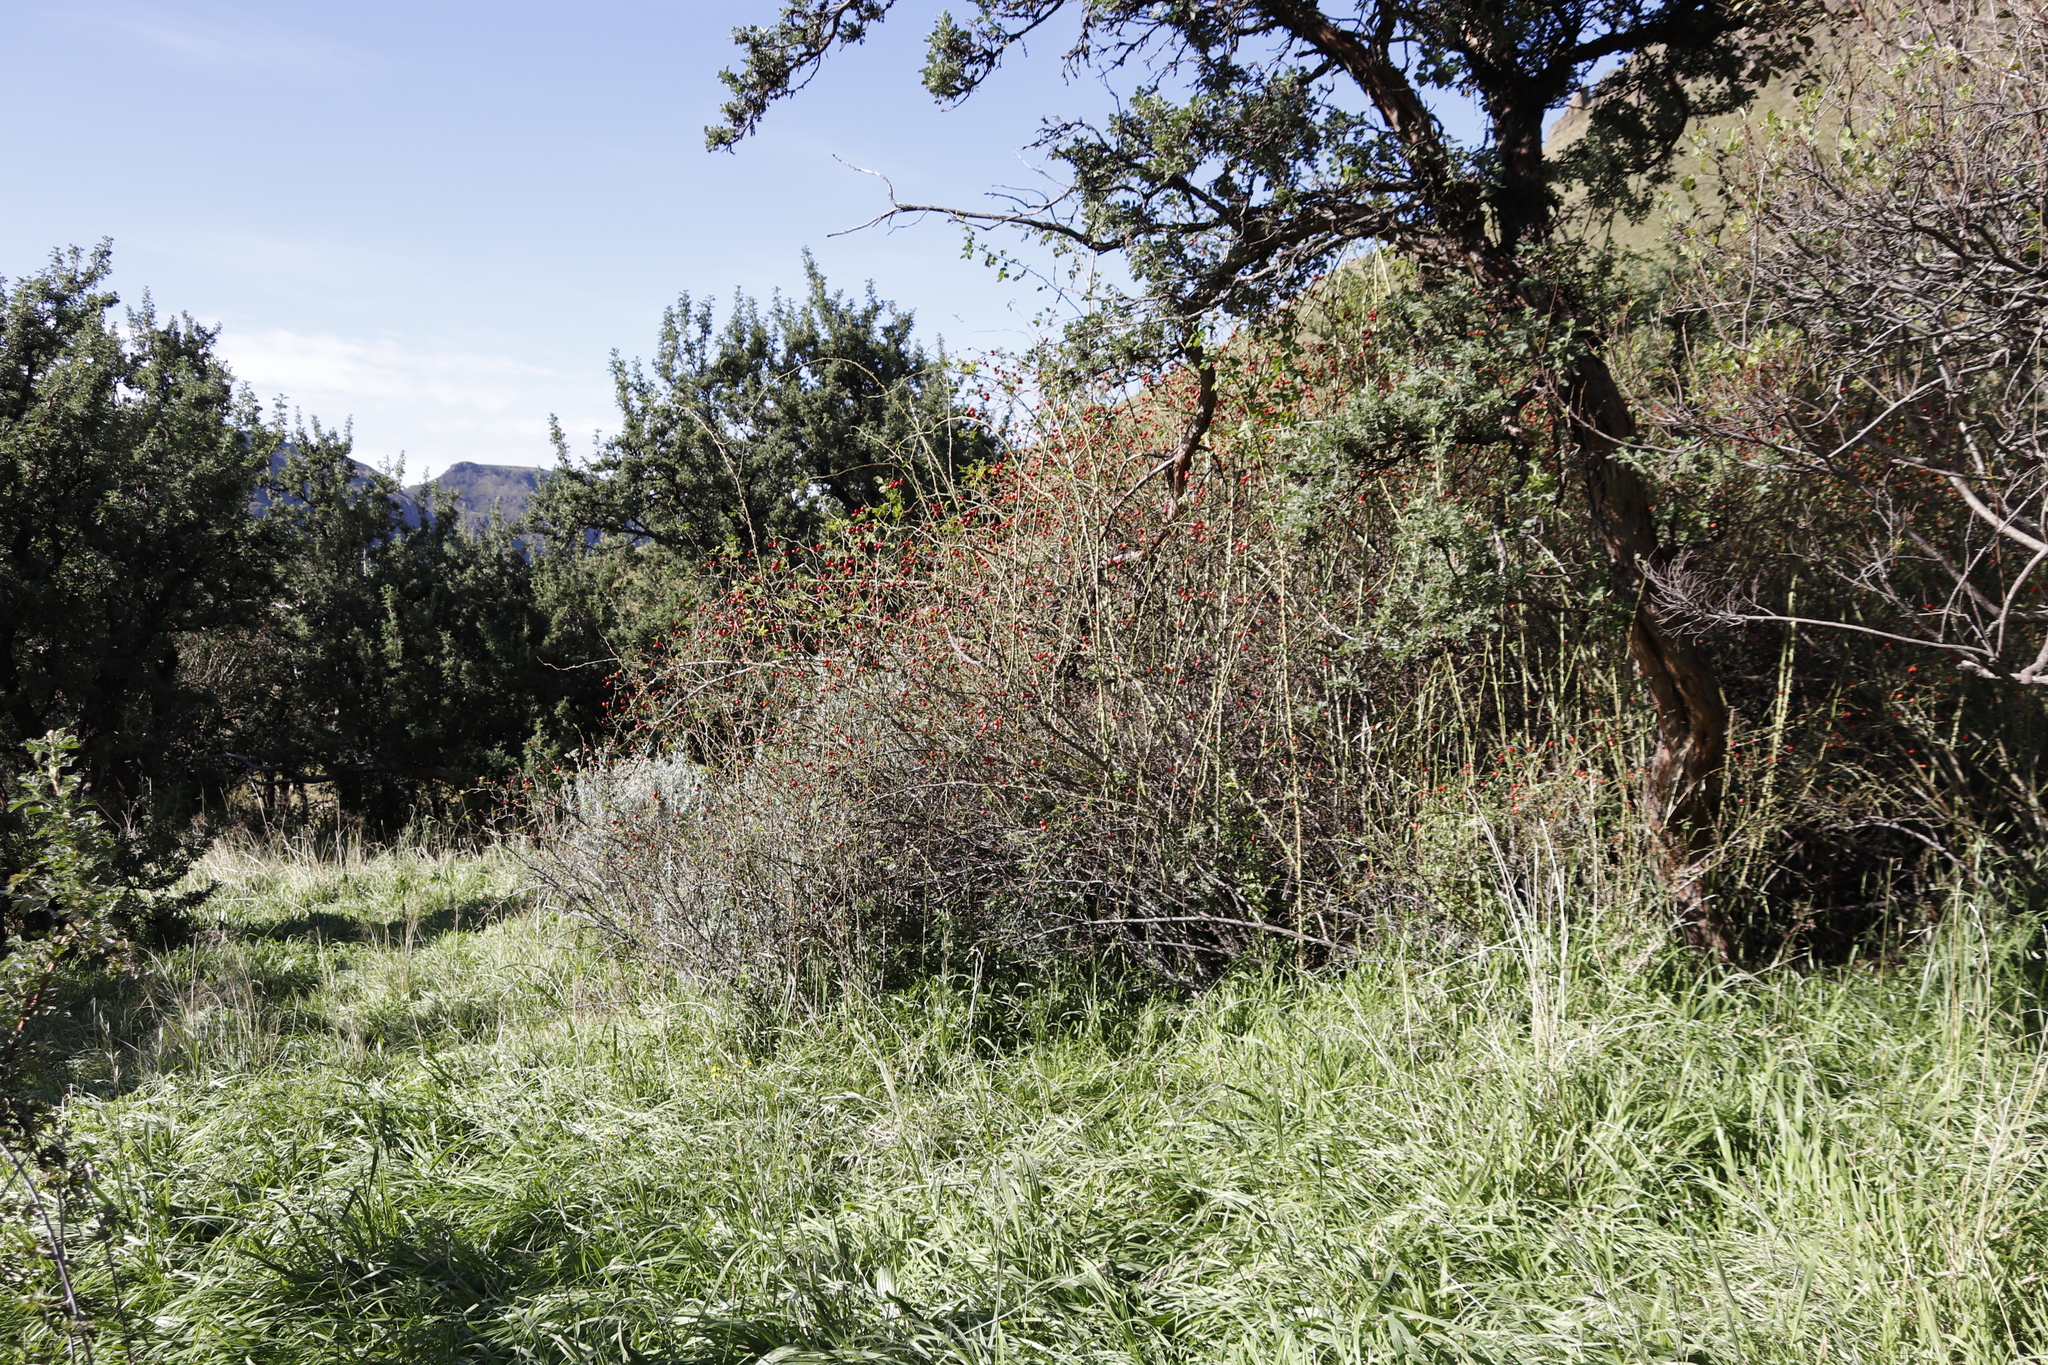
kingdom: Plantae
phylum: Tracheophyta
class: Magnoliopsida
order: Rosales
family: Rosaceae
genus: Rosa
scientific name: Rosa rubiginosa
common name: Sweet-briar
